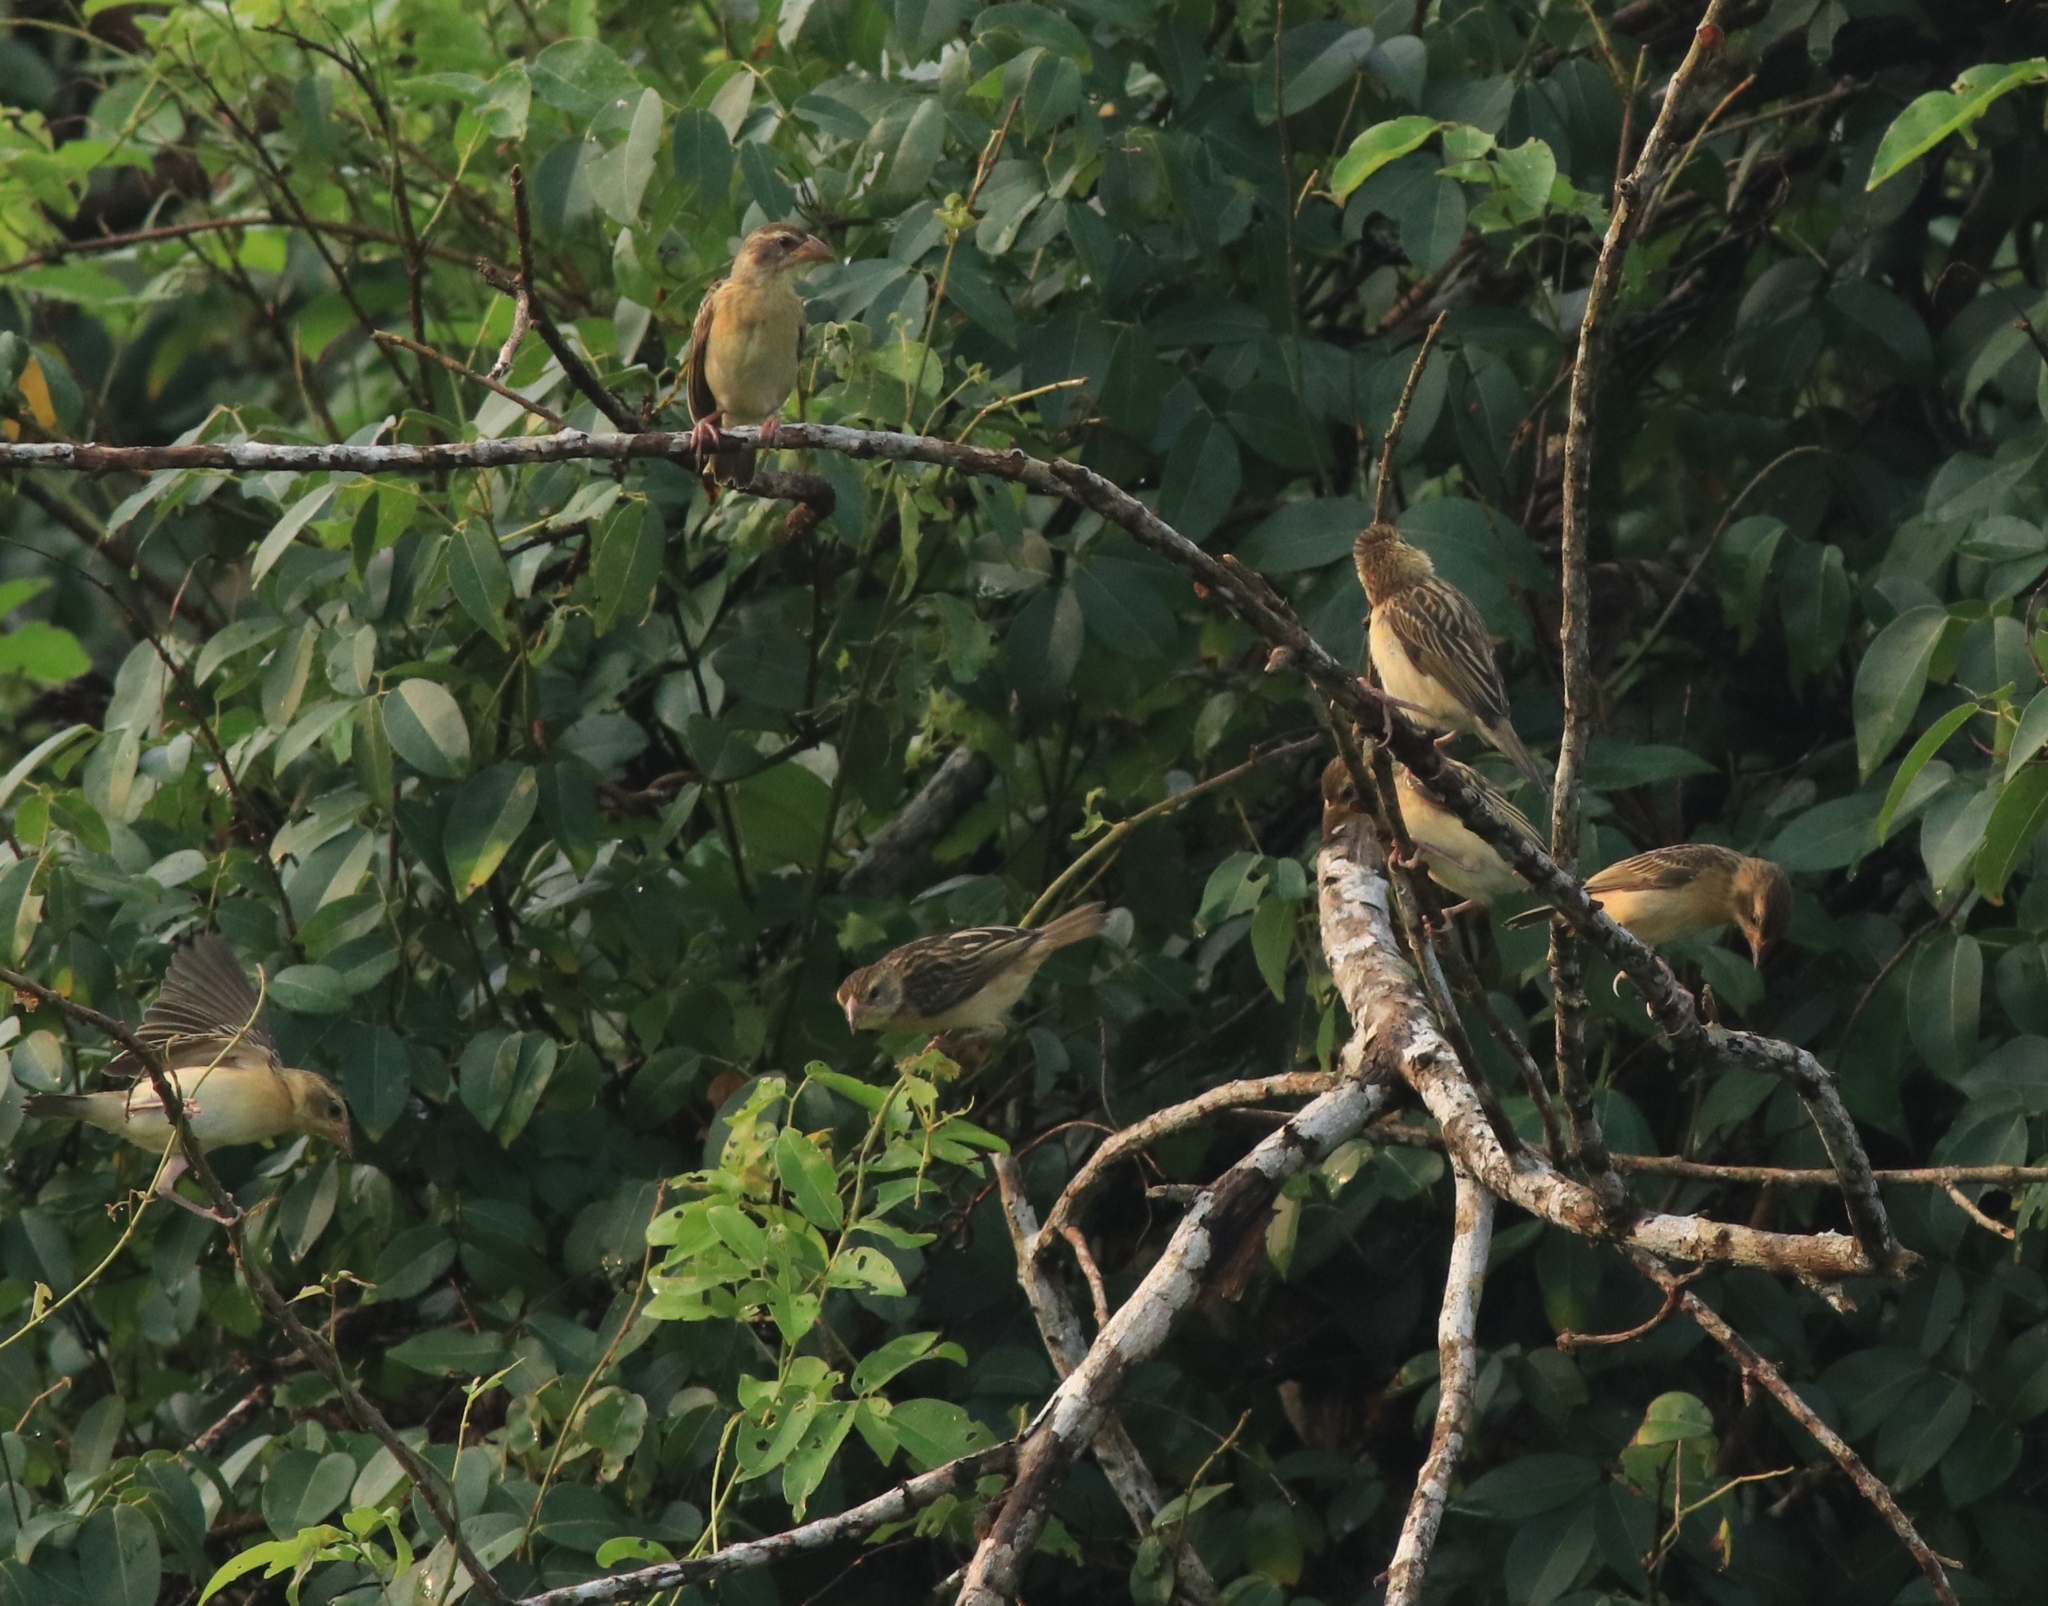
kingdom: Animalia
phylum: Chordata
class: Aves
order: Passeriformes
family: Ploceidae
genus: Ploceus
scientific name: Ploceus philippinus
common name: Baya weaver
